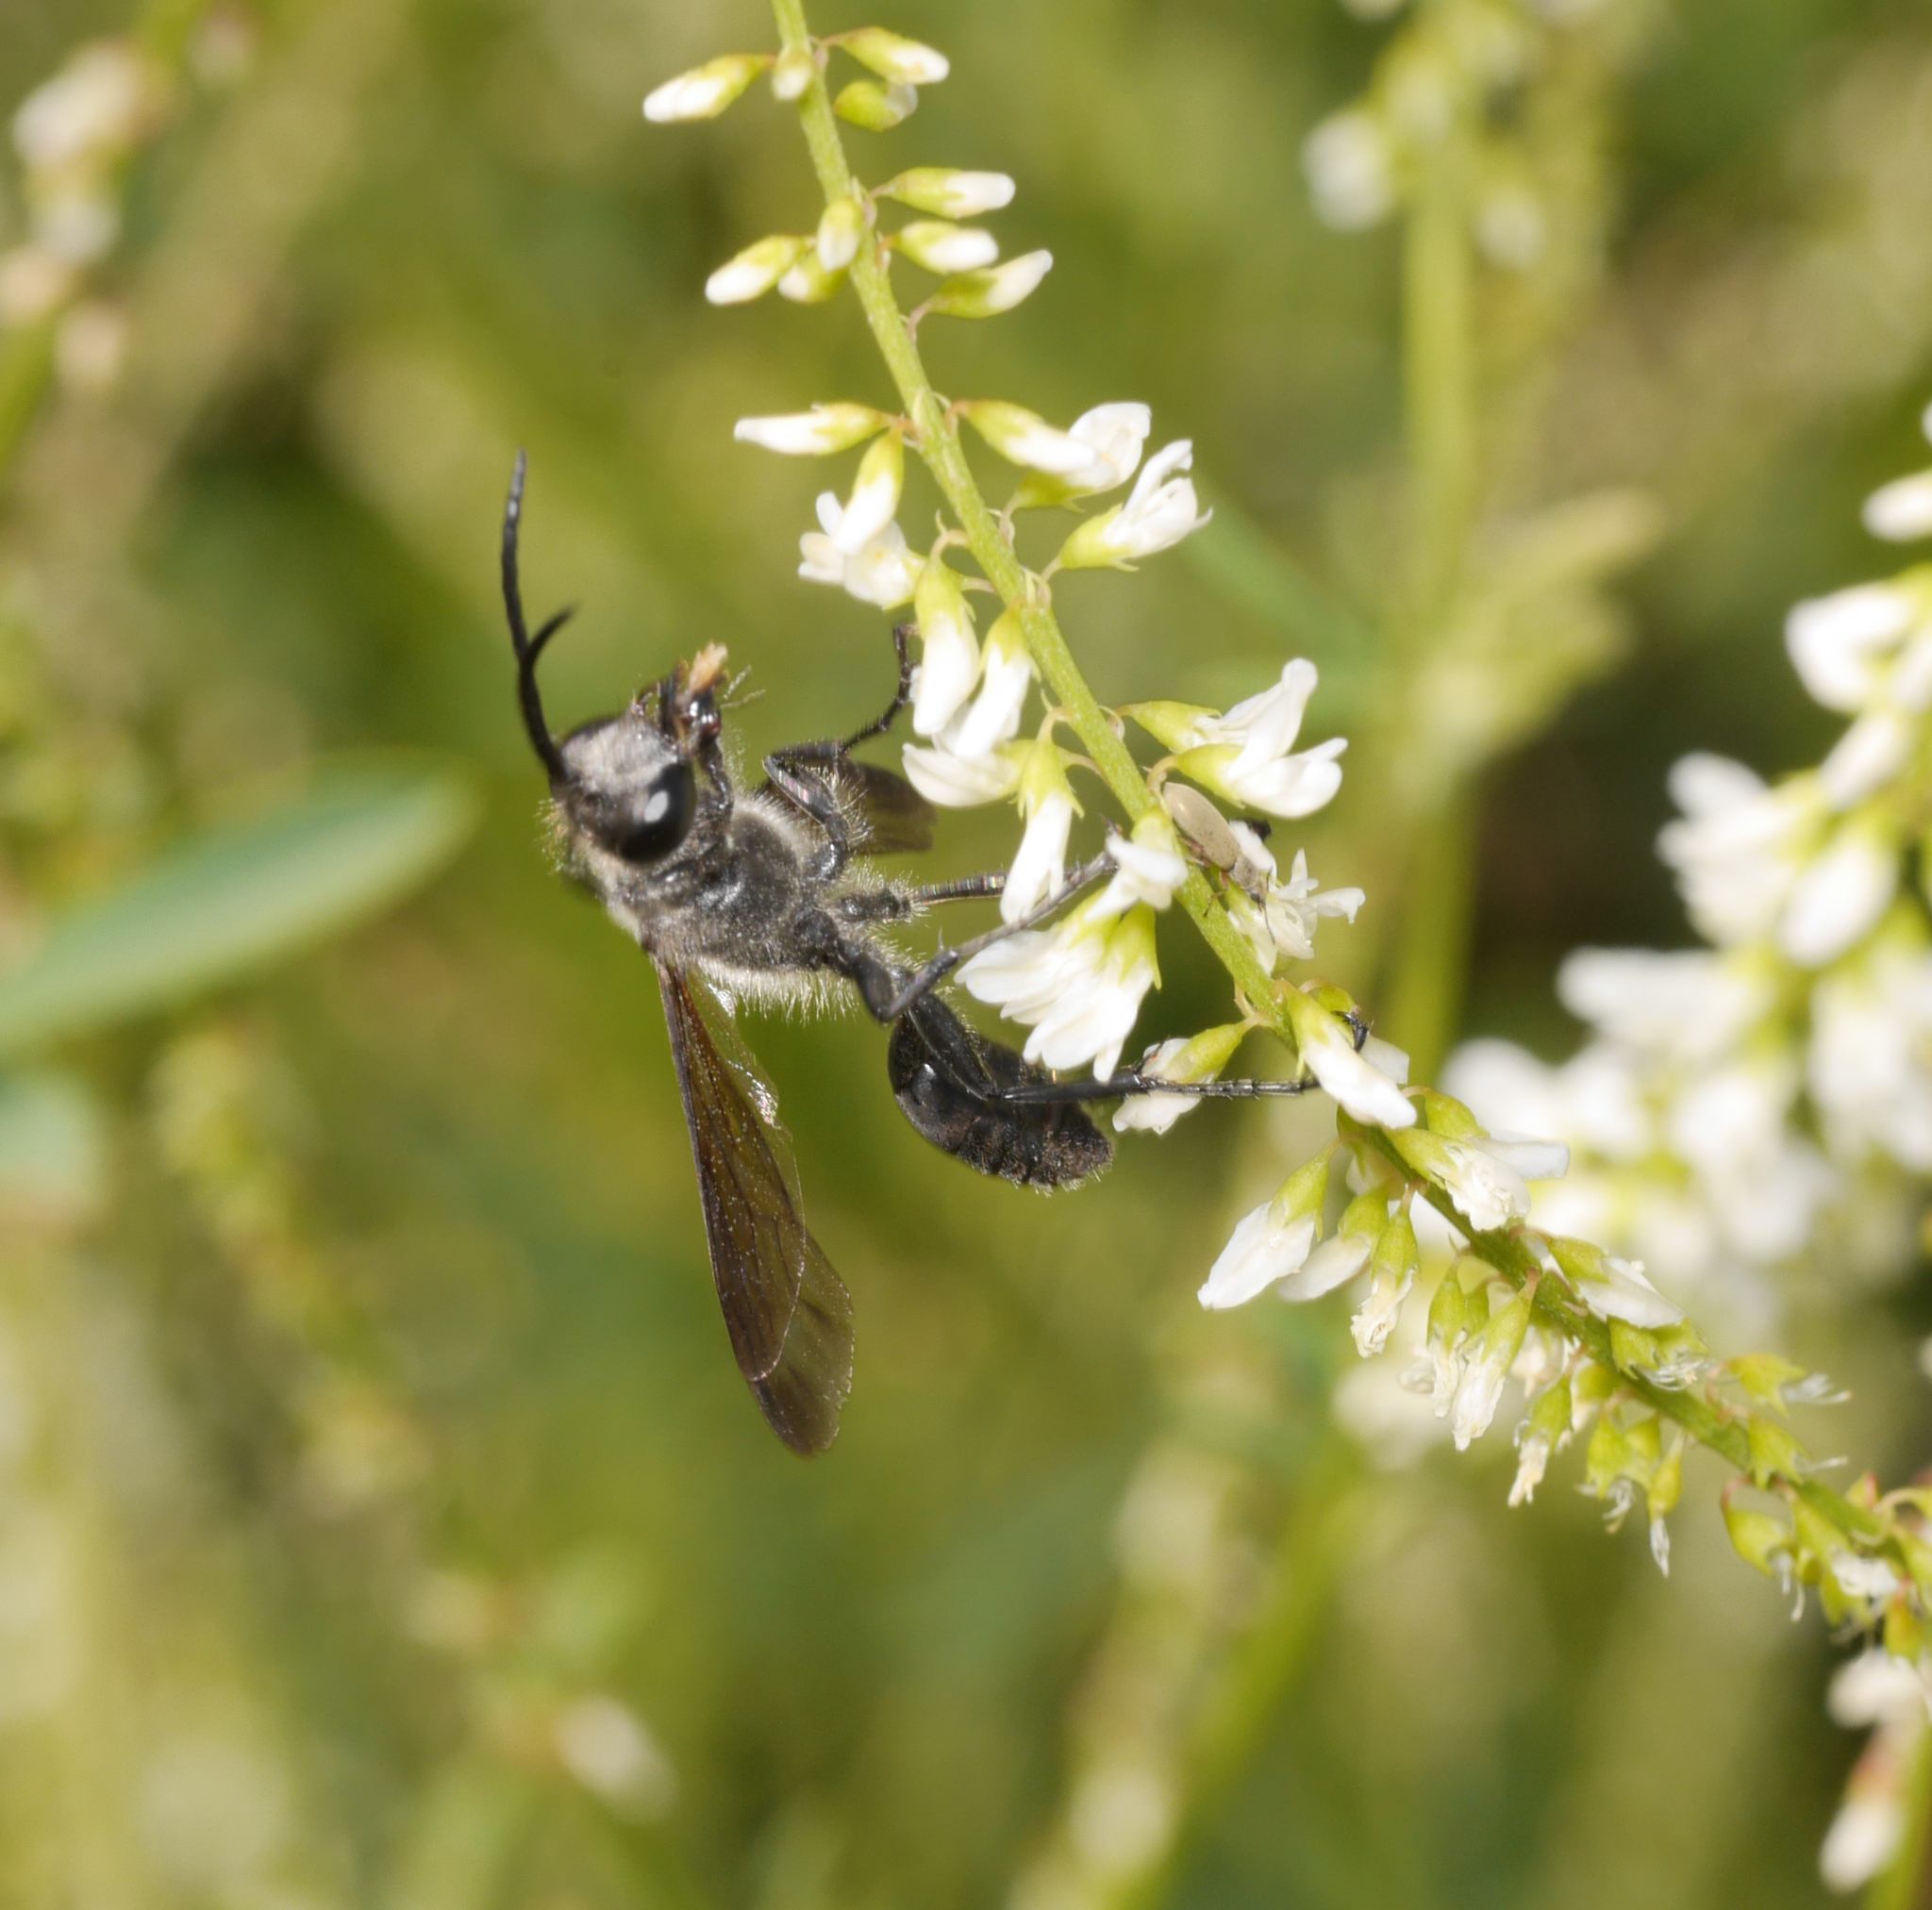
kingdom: Animalia
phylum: Arthropoda
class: Insecta
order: Hymenoptera
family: Sphecidae
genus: Isodontia
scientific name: Isodontia mexicana
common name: Mud dauber
